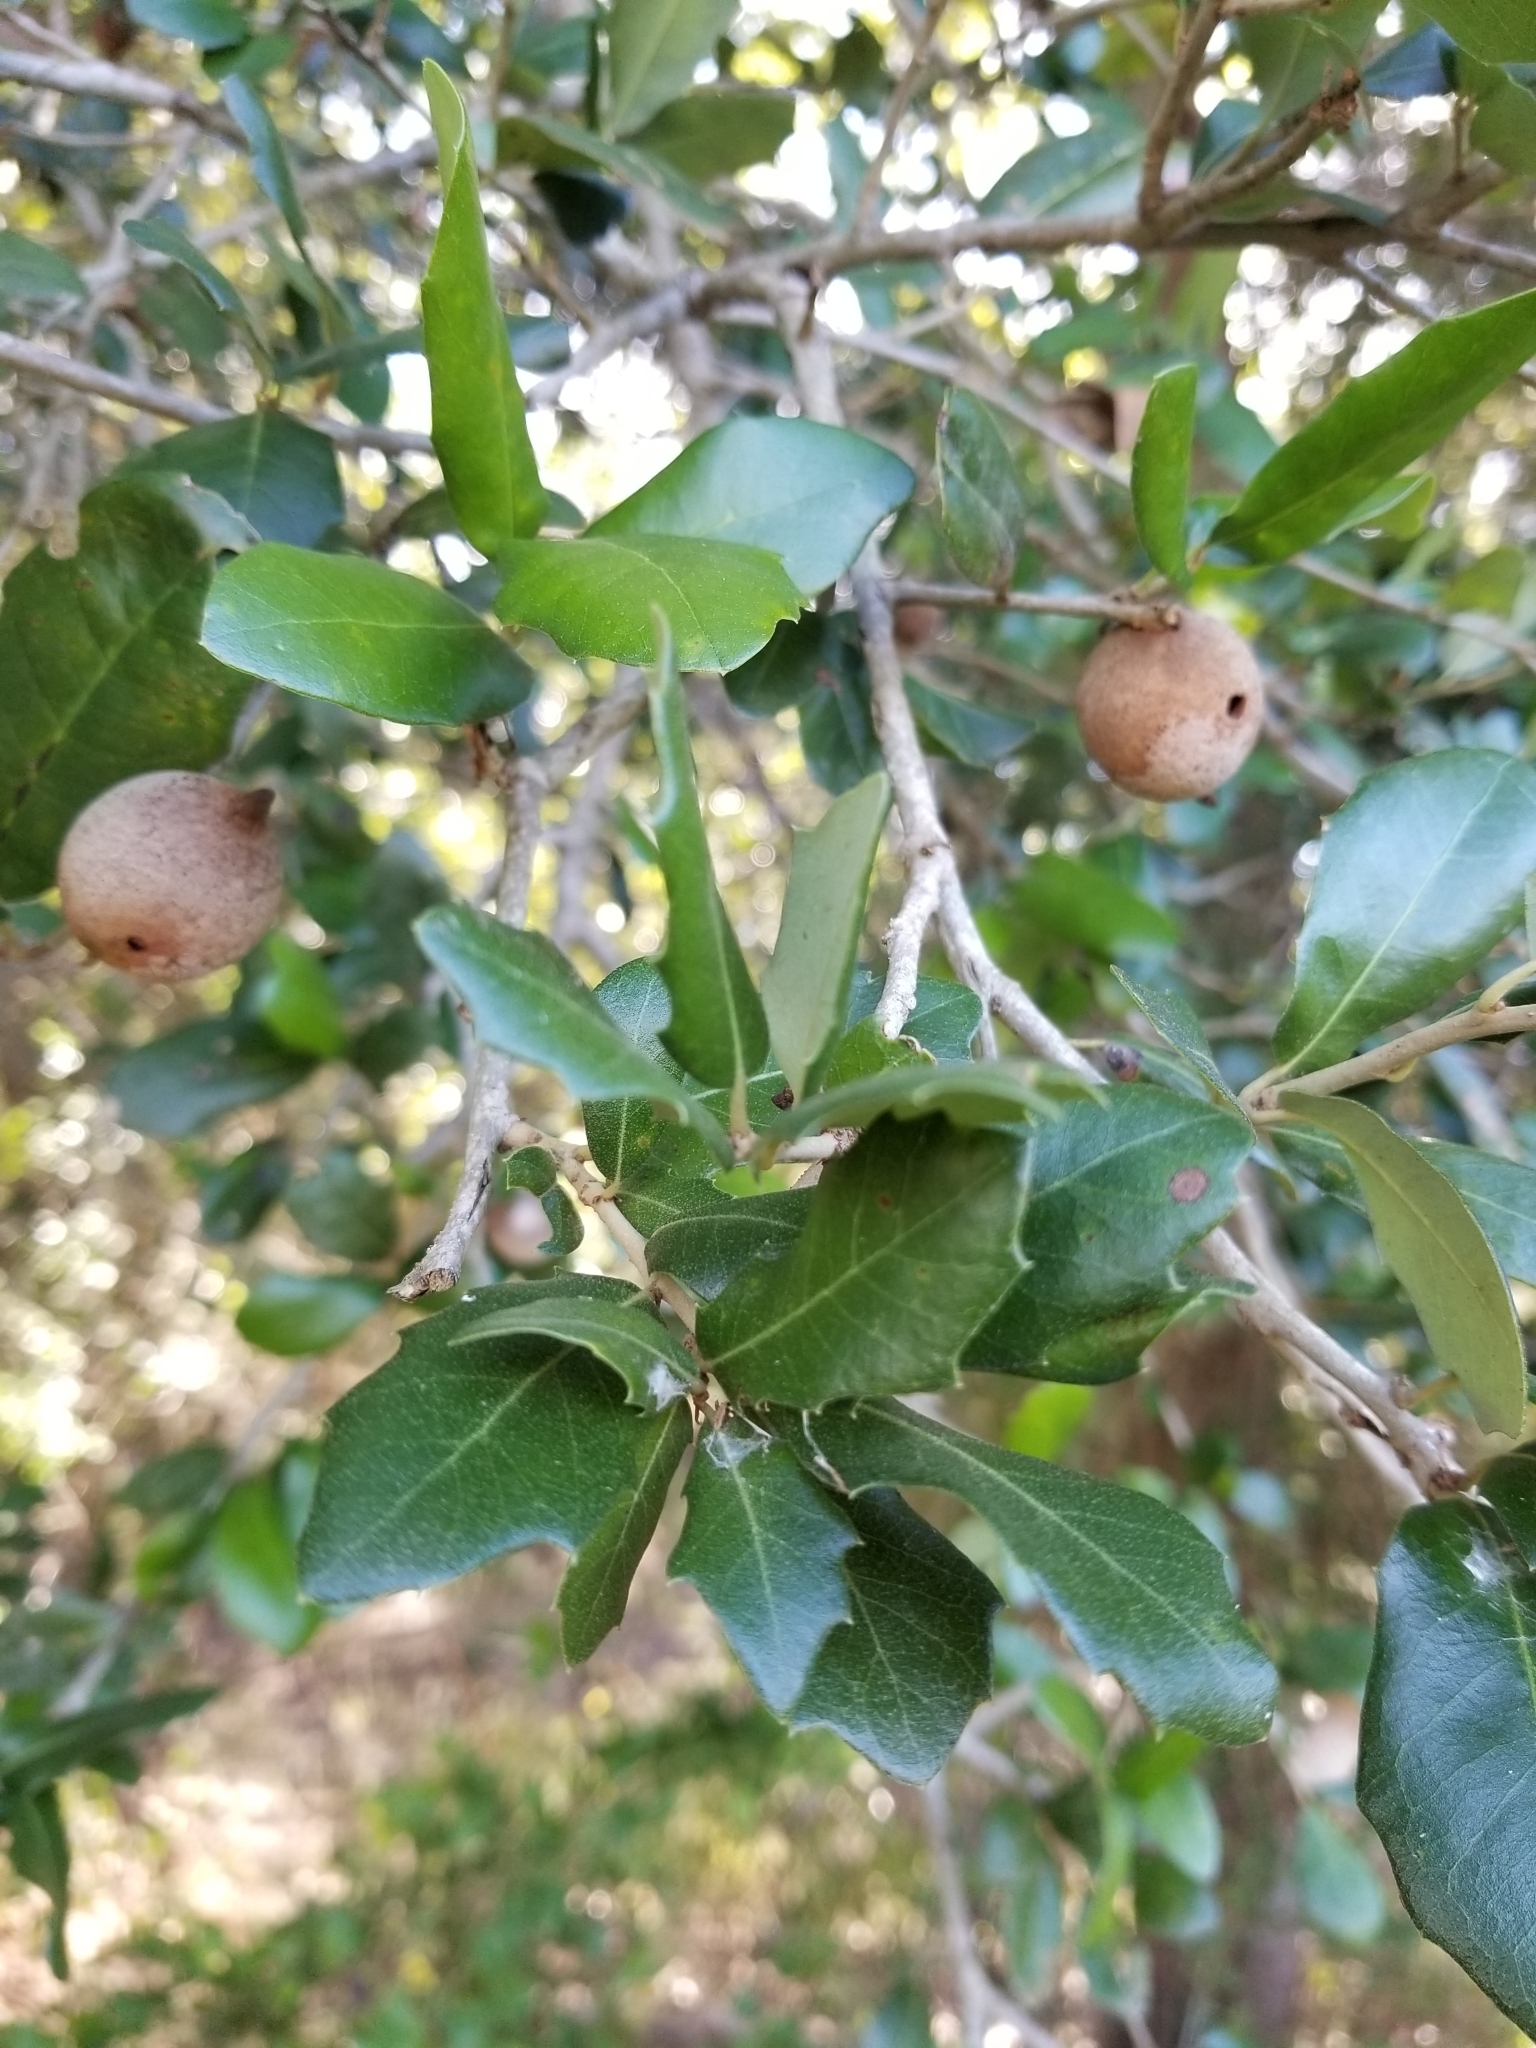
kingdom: Animalia
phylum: Arthropoda
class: Insecta
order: Hymenoptera
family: Cynipidae
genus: Disholcaspis
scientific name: Disholcaspis
